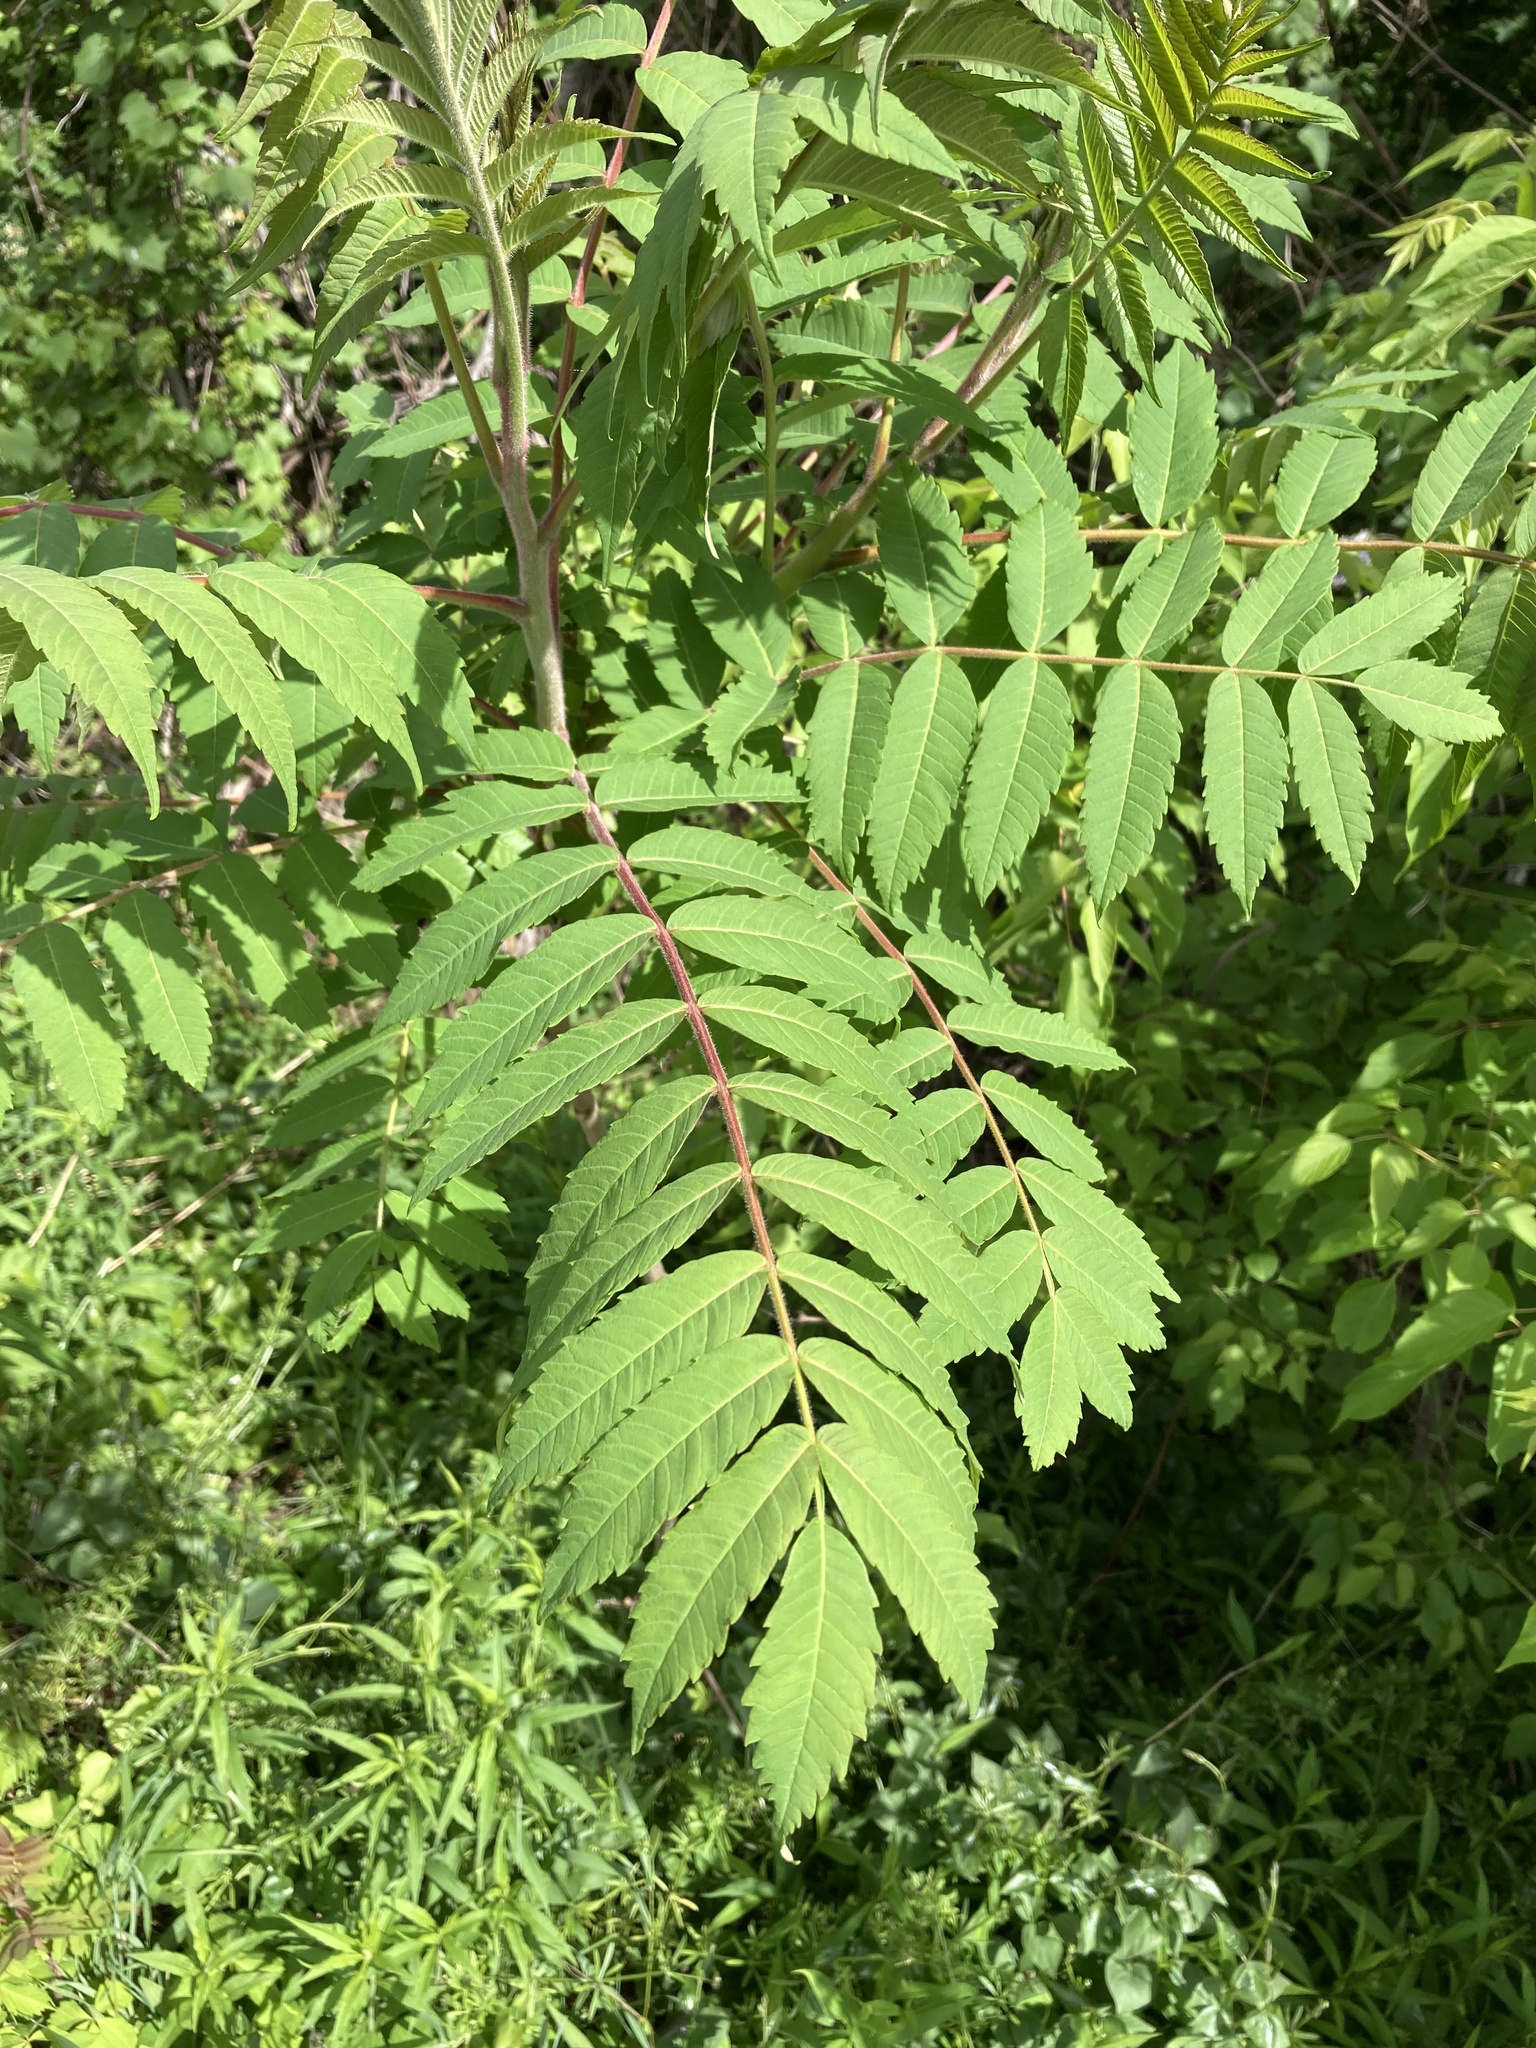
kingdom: Plantae
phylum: Tracheophyta
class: Magnoliopsida
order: Sapindales
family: Anacardiaceae
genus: Rhus
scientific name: Rhus typhina
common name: Staghorn sumac
